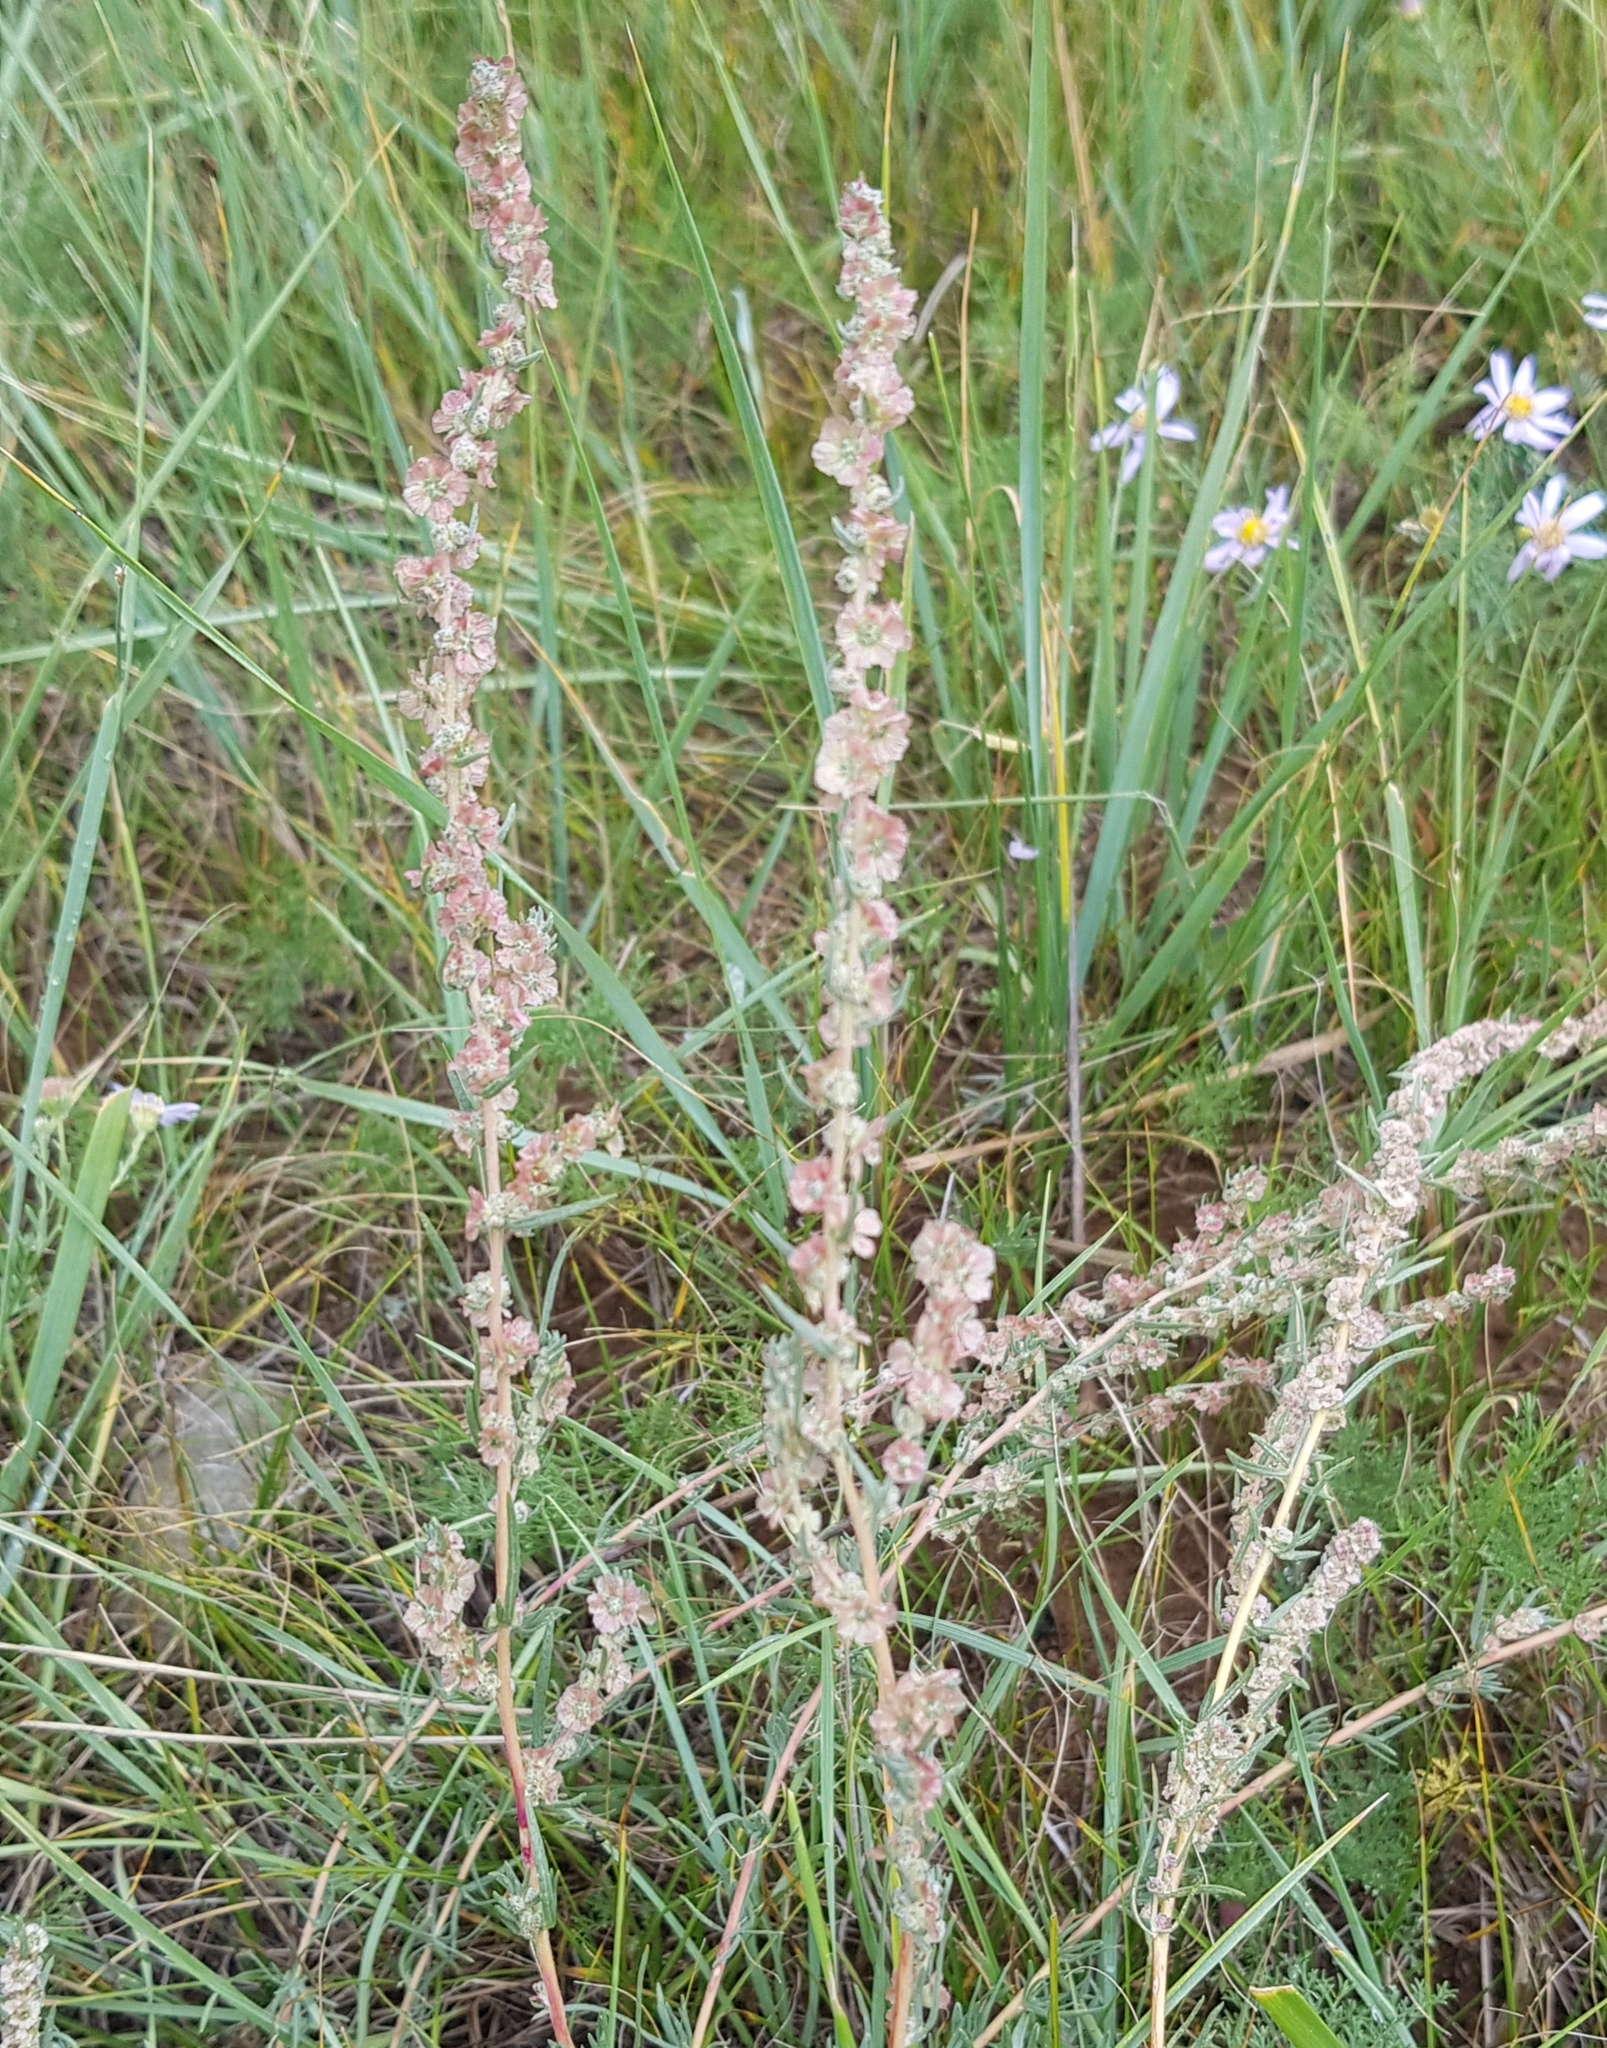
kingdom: Plantae
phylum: Tracheophyta
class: Magnoliopsida
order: Caryophyllales
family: Amaranthaceae
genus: Bassia
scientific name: Bassia prostrata
